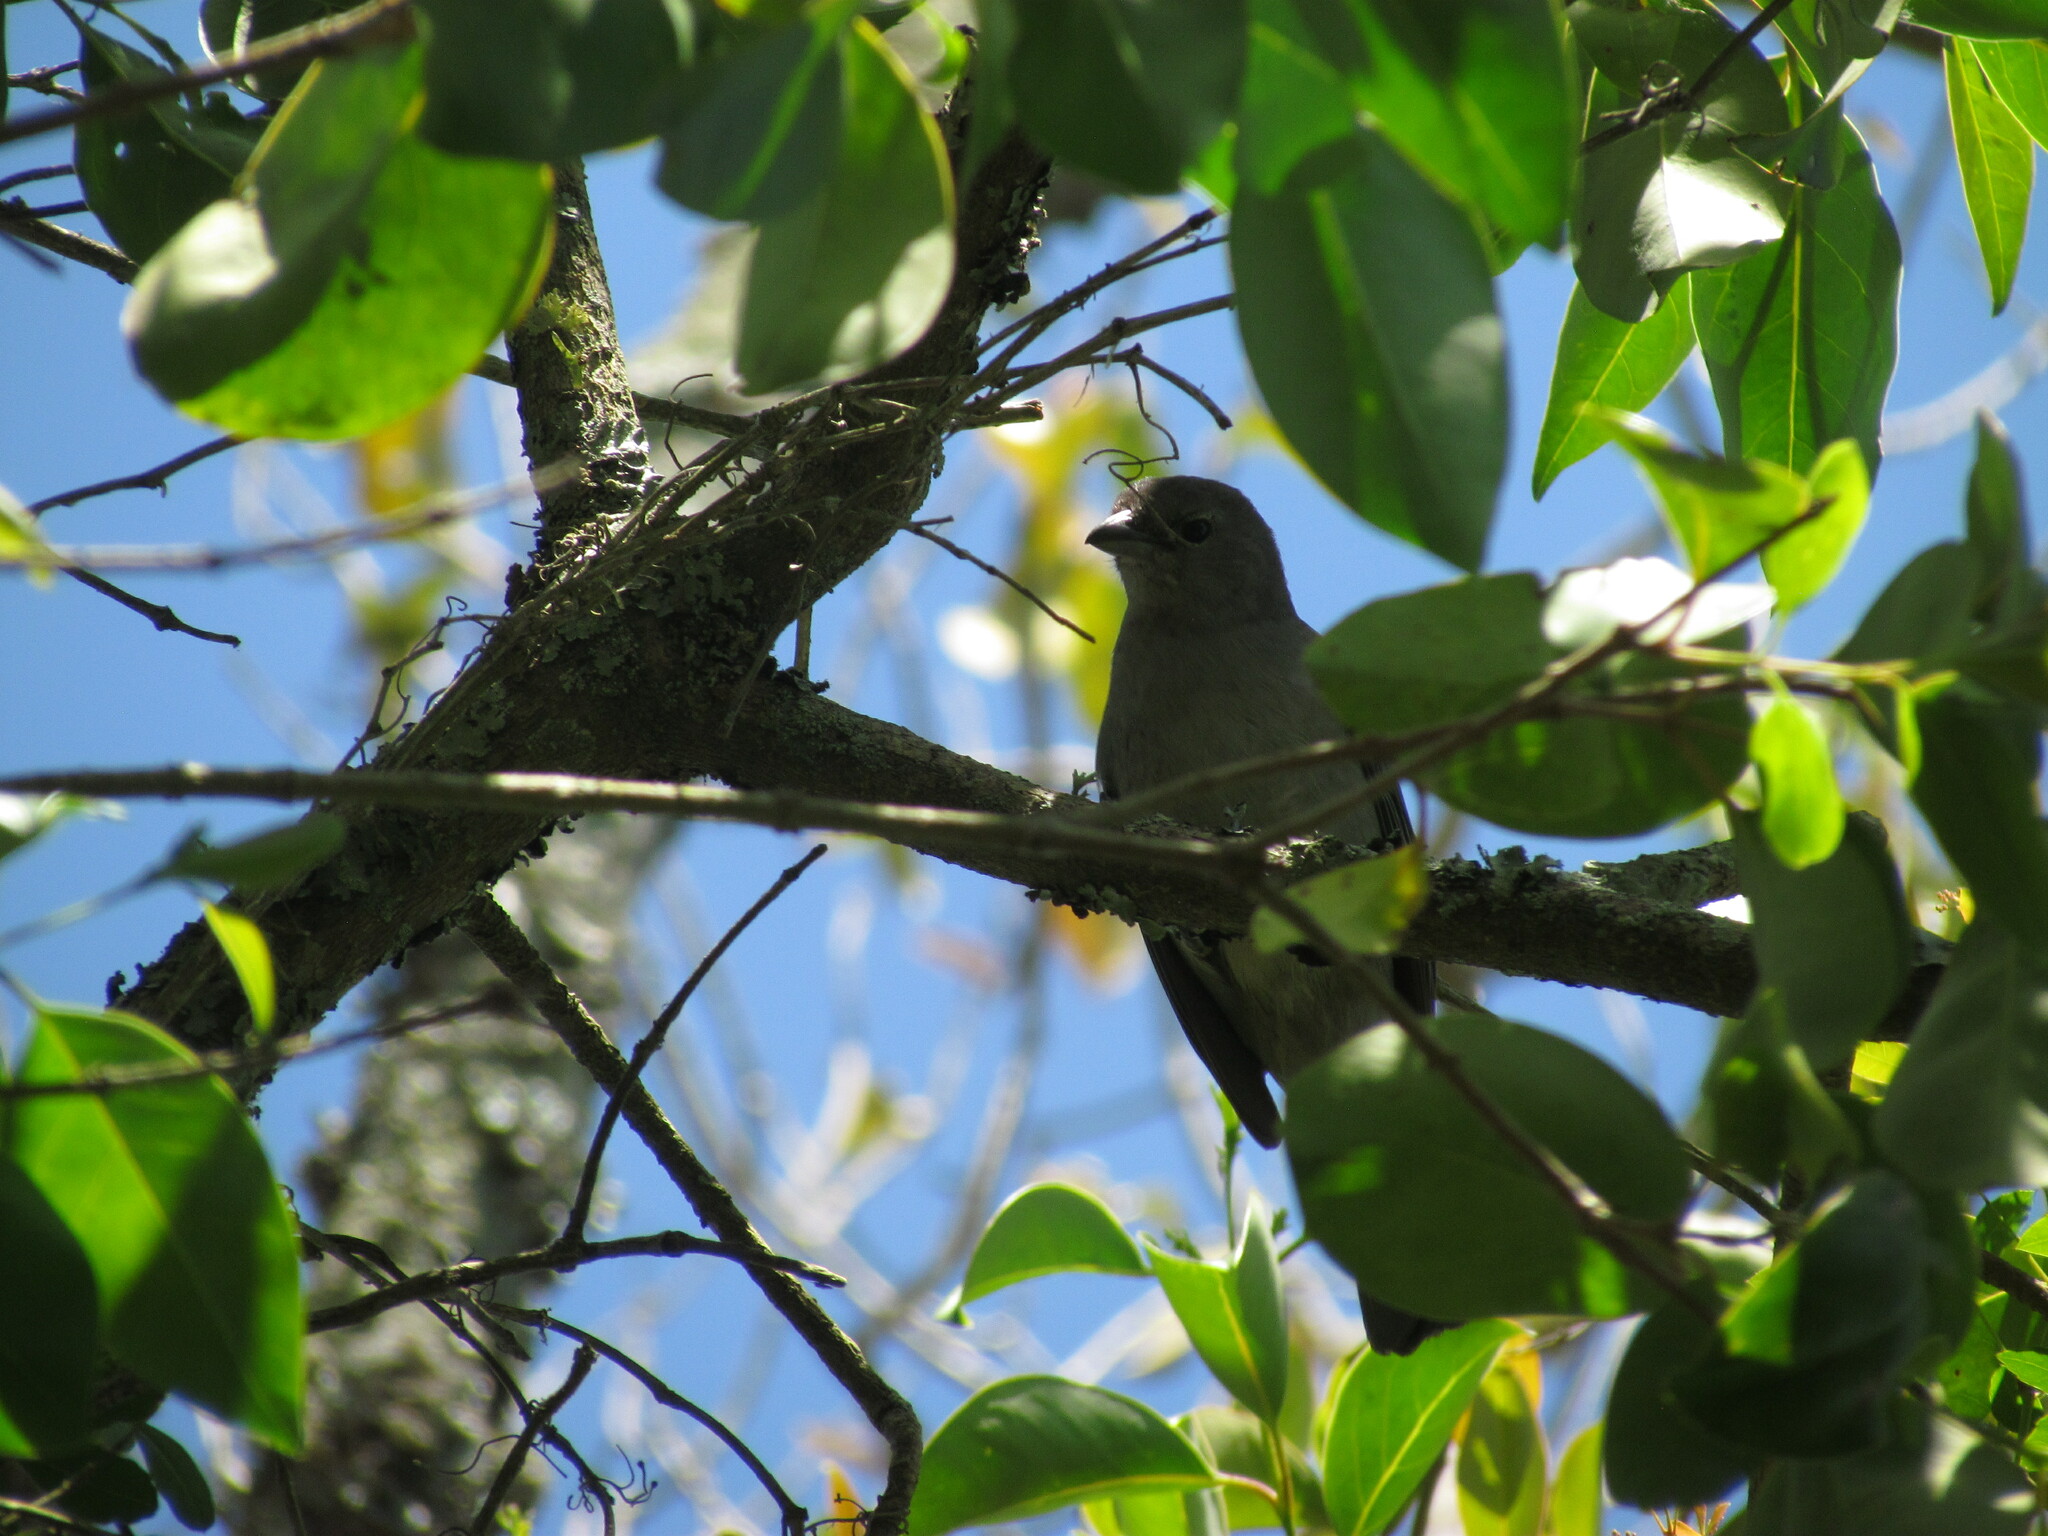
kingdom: Animalia
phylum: Chordata
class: Aves
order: Passeriformes
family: Thraupidae
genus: Thraupis
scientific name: Thraupis sayaca
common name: Sayaca tanager
